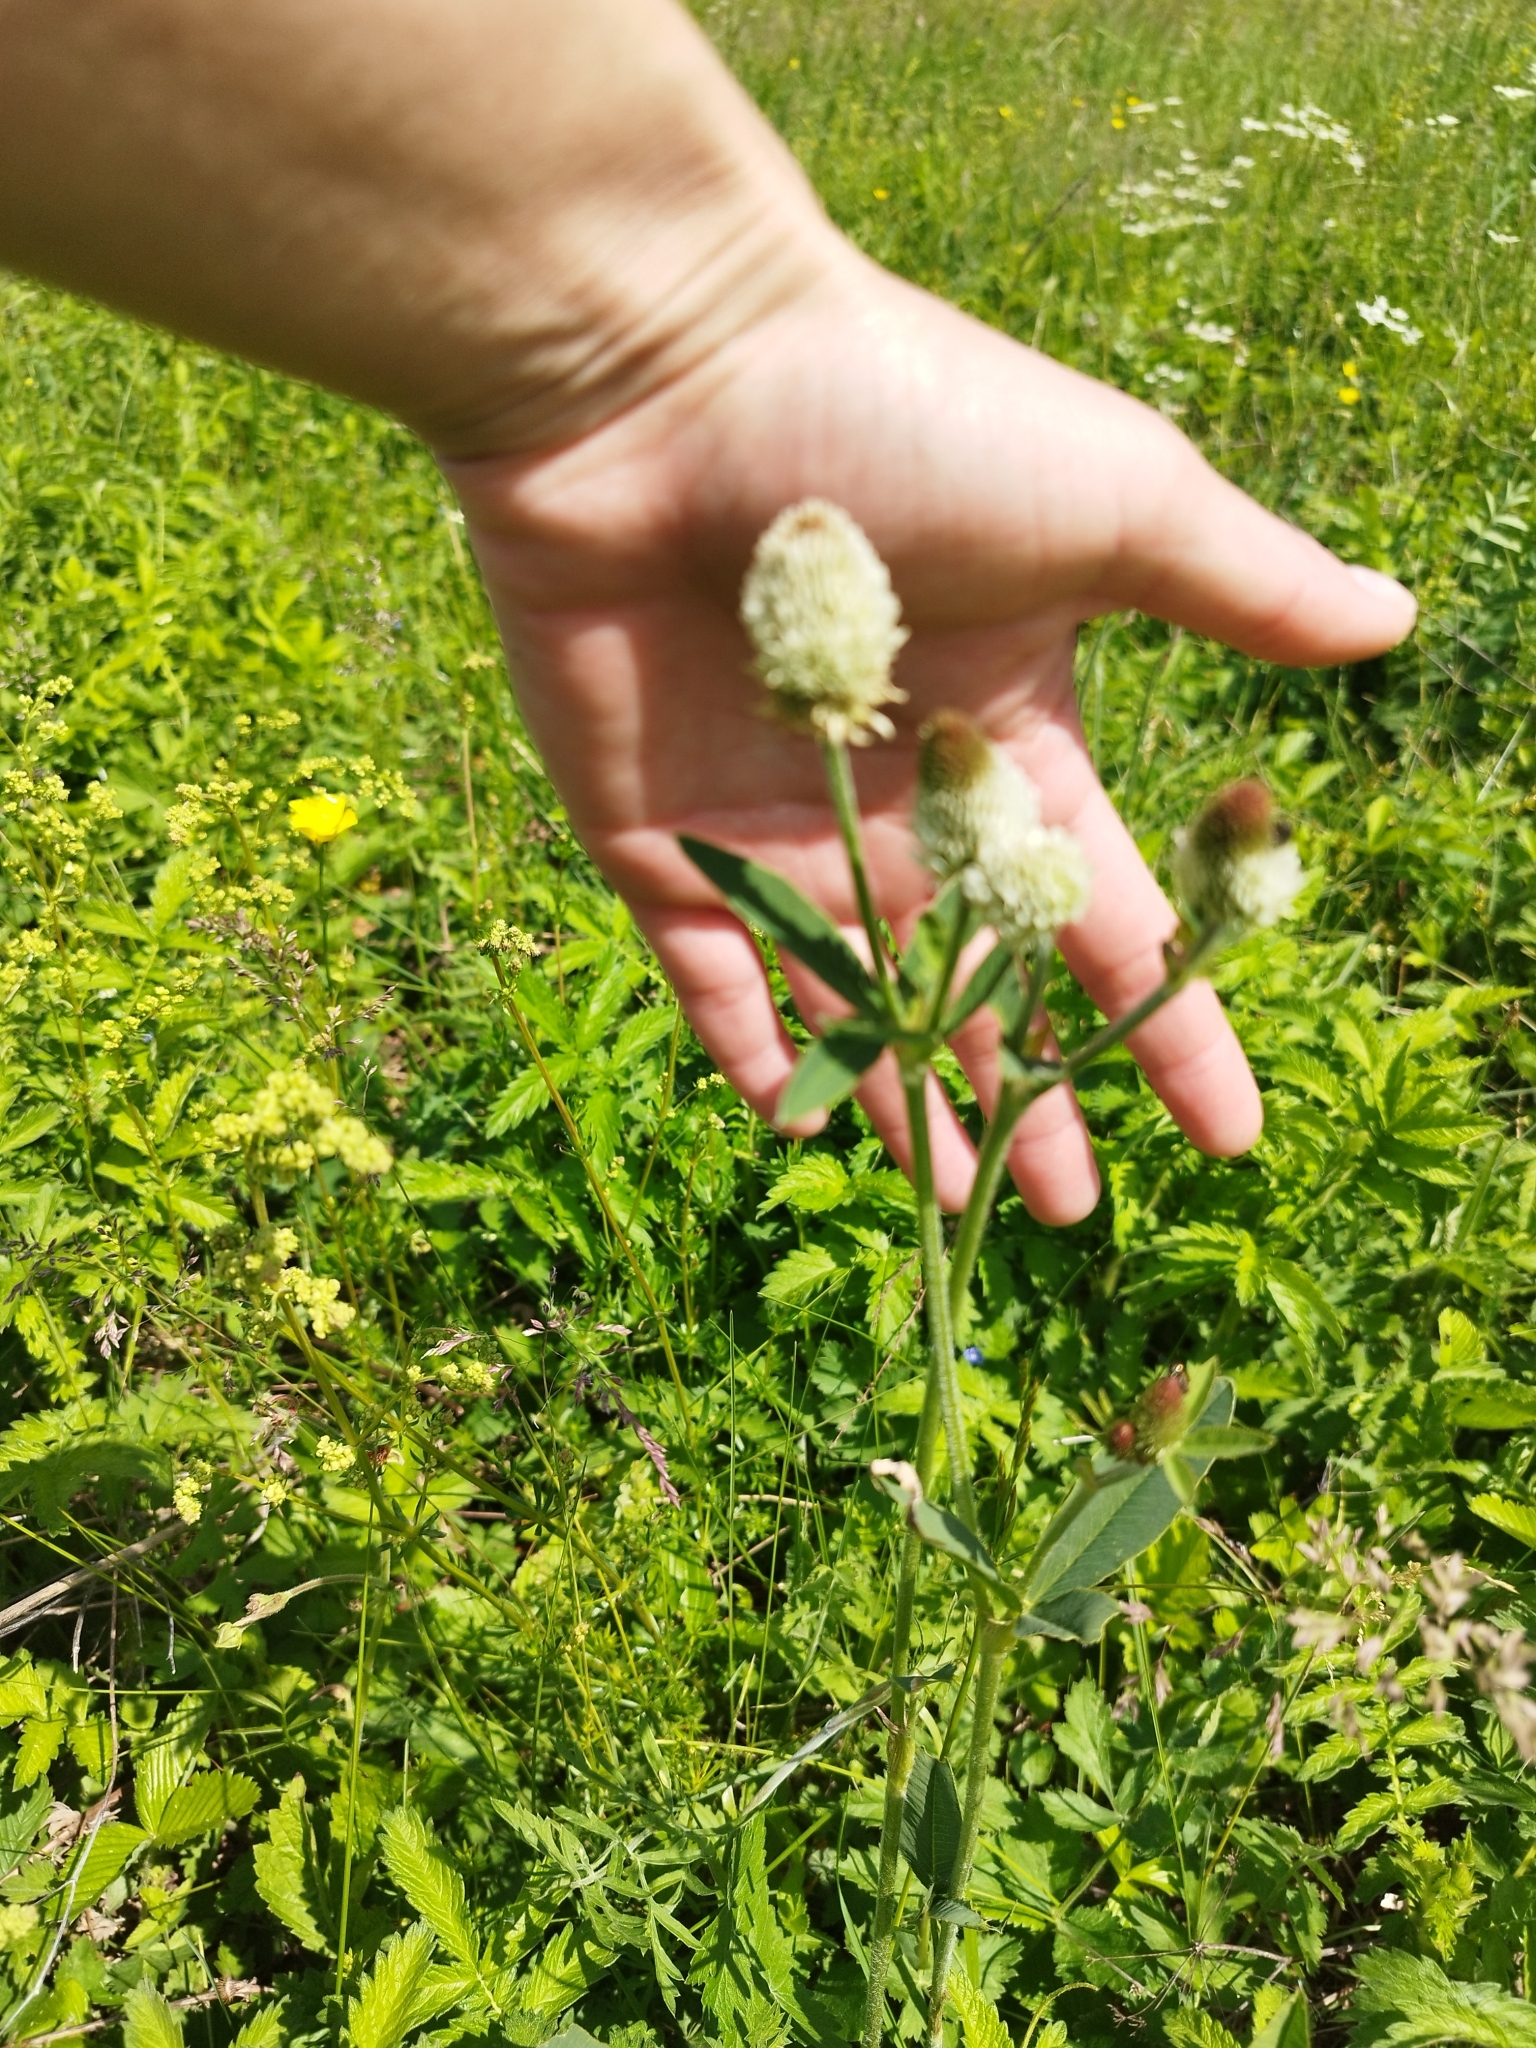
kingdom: Plantae
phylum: Tracheophyta
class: Magnoliopsida
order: Fabales
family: Fabaceae
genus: Trifolium
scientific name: Trifolium montanum
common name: Mountain clover
